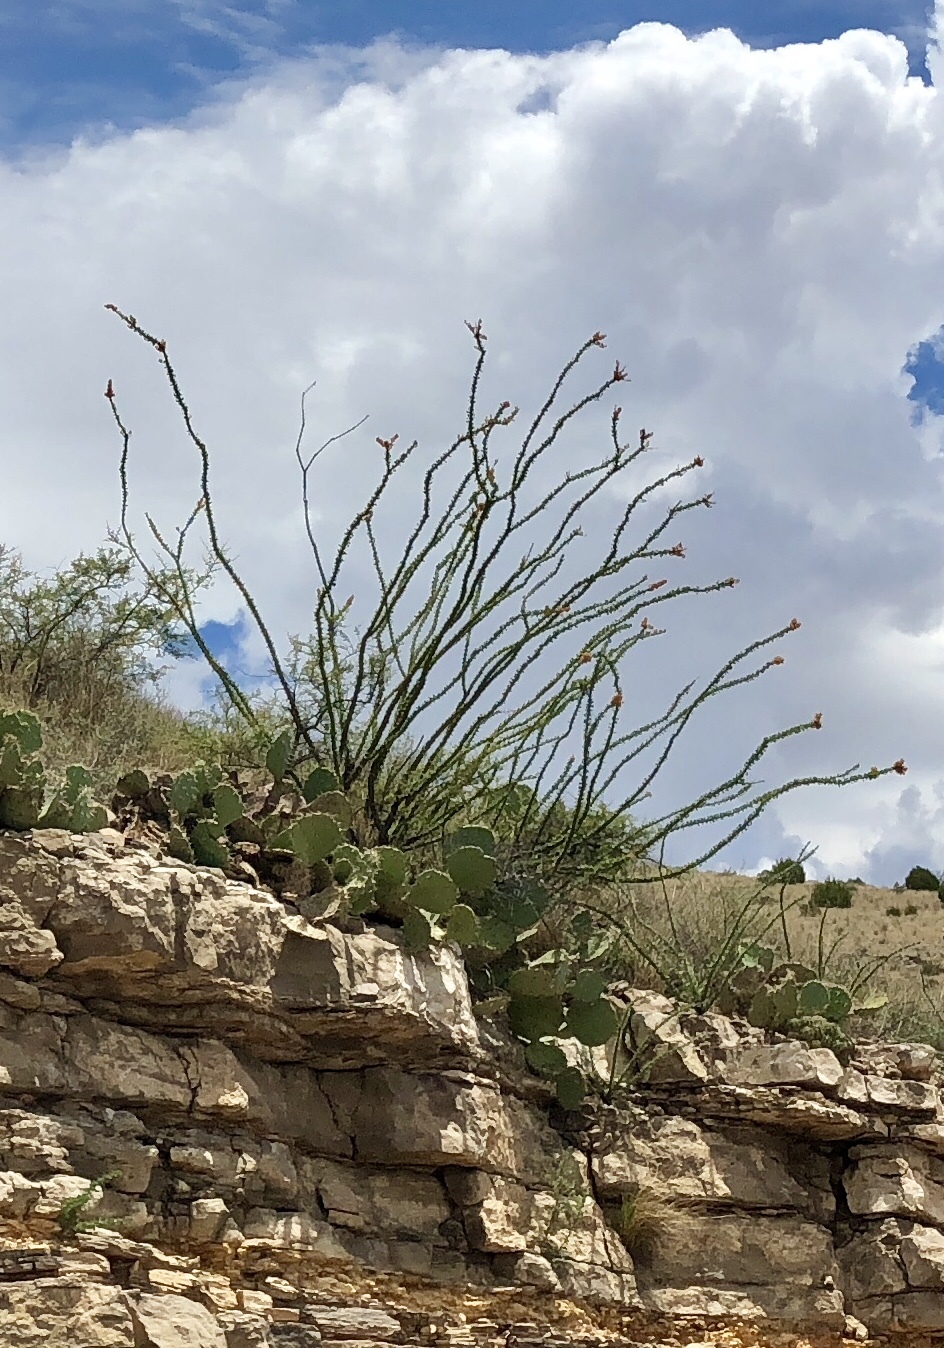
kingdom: Plantae
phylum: Tracheophyta
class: Magnoliopsida
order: Ericales
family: Fouquieriaceae
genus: Fouquieria
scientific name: Fouquieria splendens
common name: Vine-cactus
